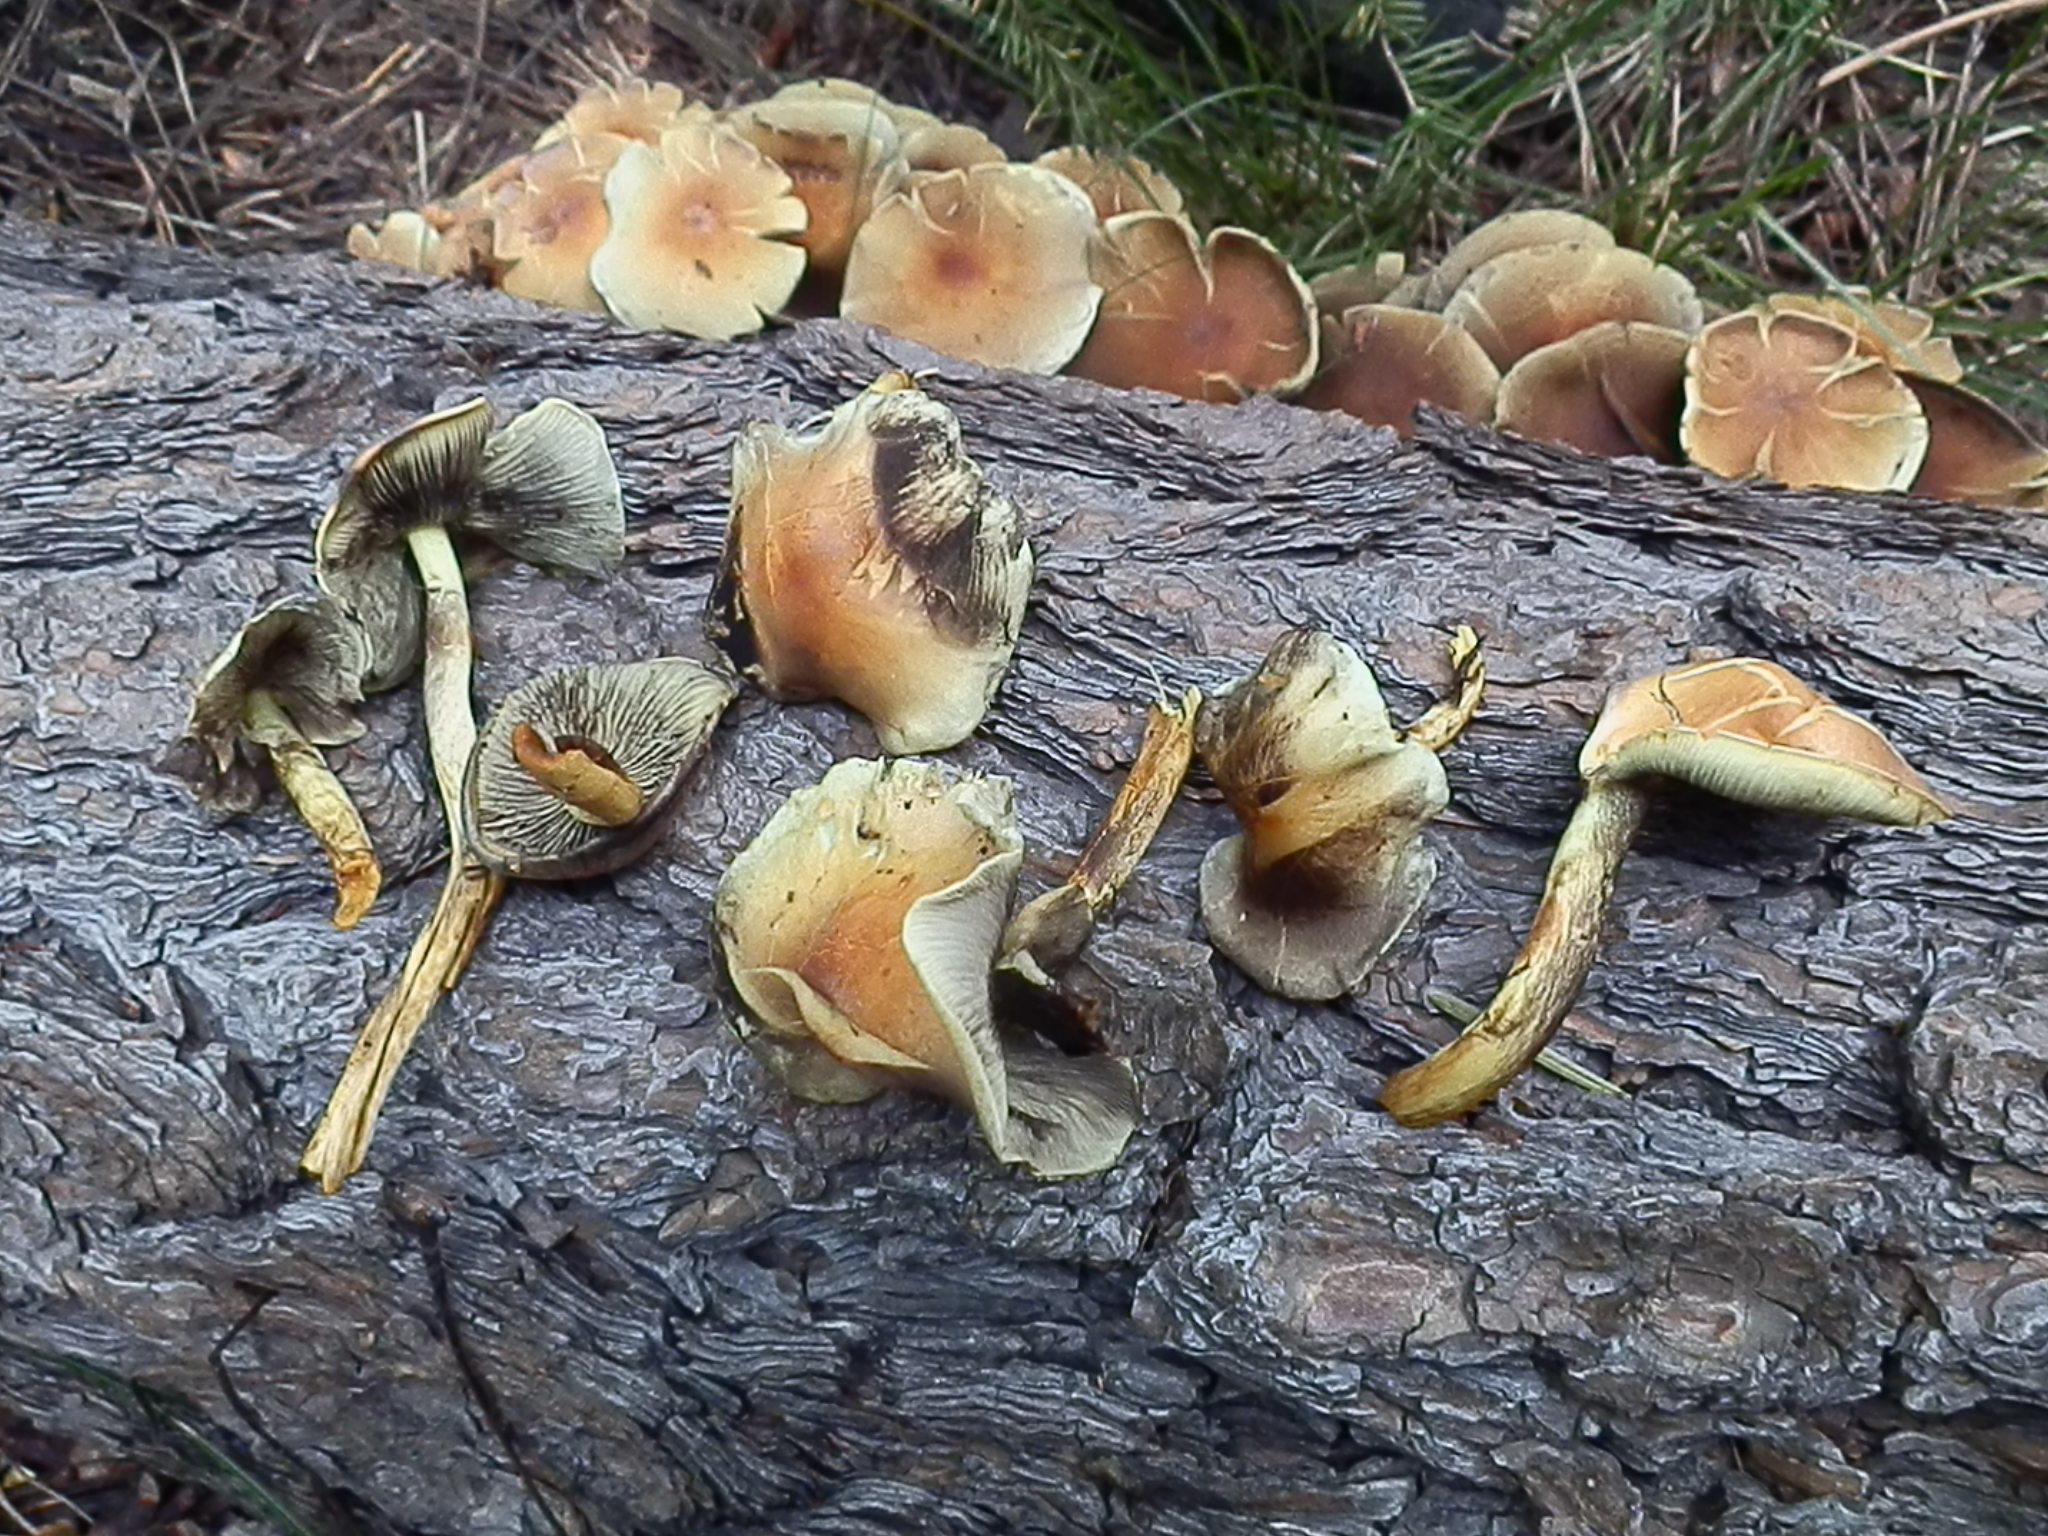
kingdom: Fungi
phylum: Basidiomycota
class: Agaricomycetes
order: Agaricales
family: Strophariaceae
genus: Hypholoma
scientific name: Hypholoma fasciculare
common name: Sulphur tuft
